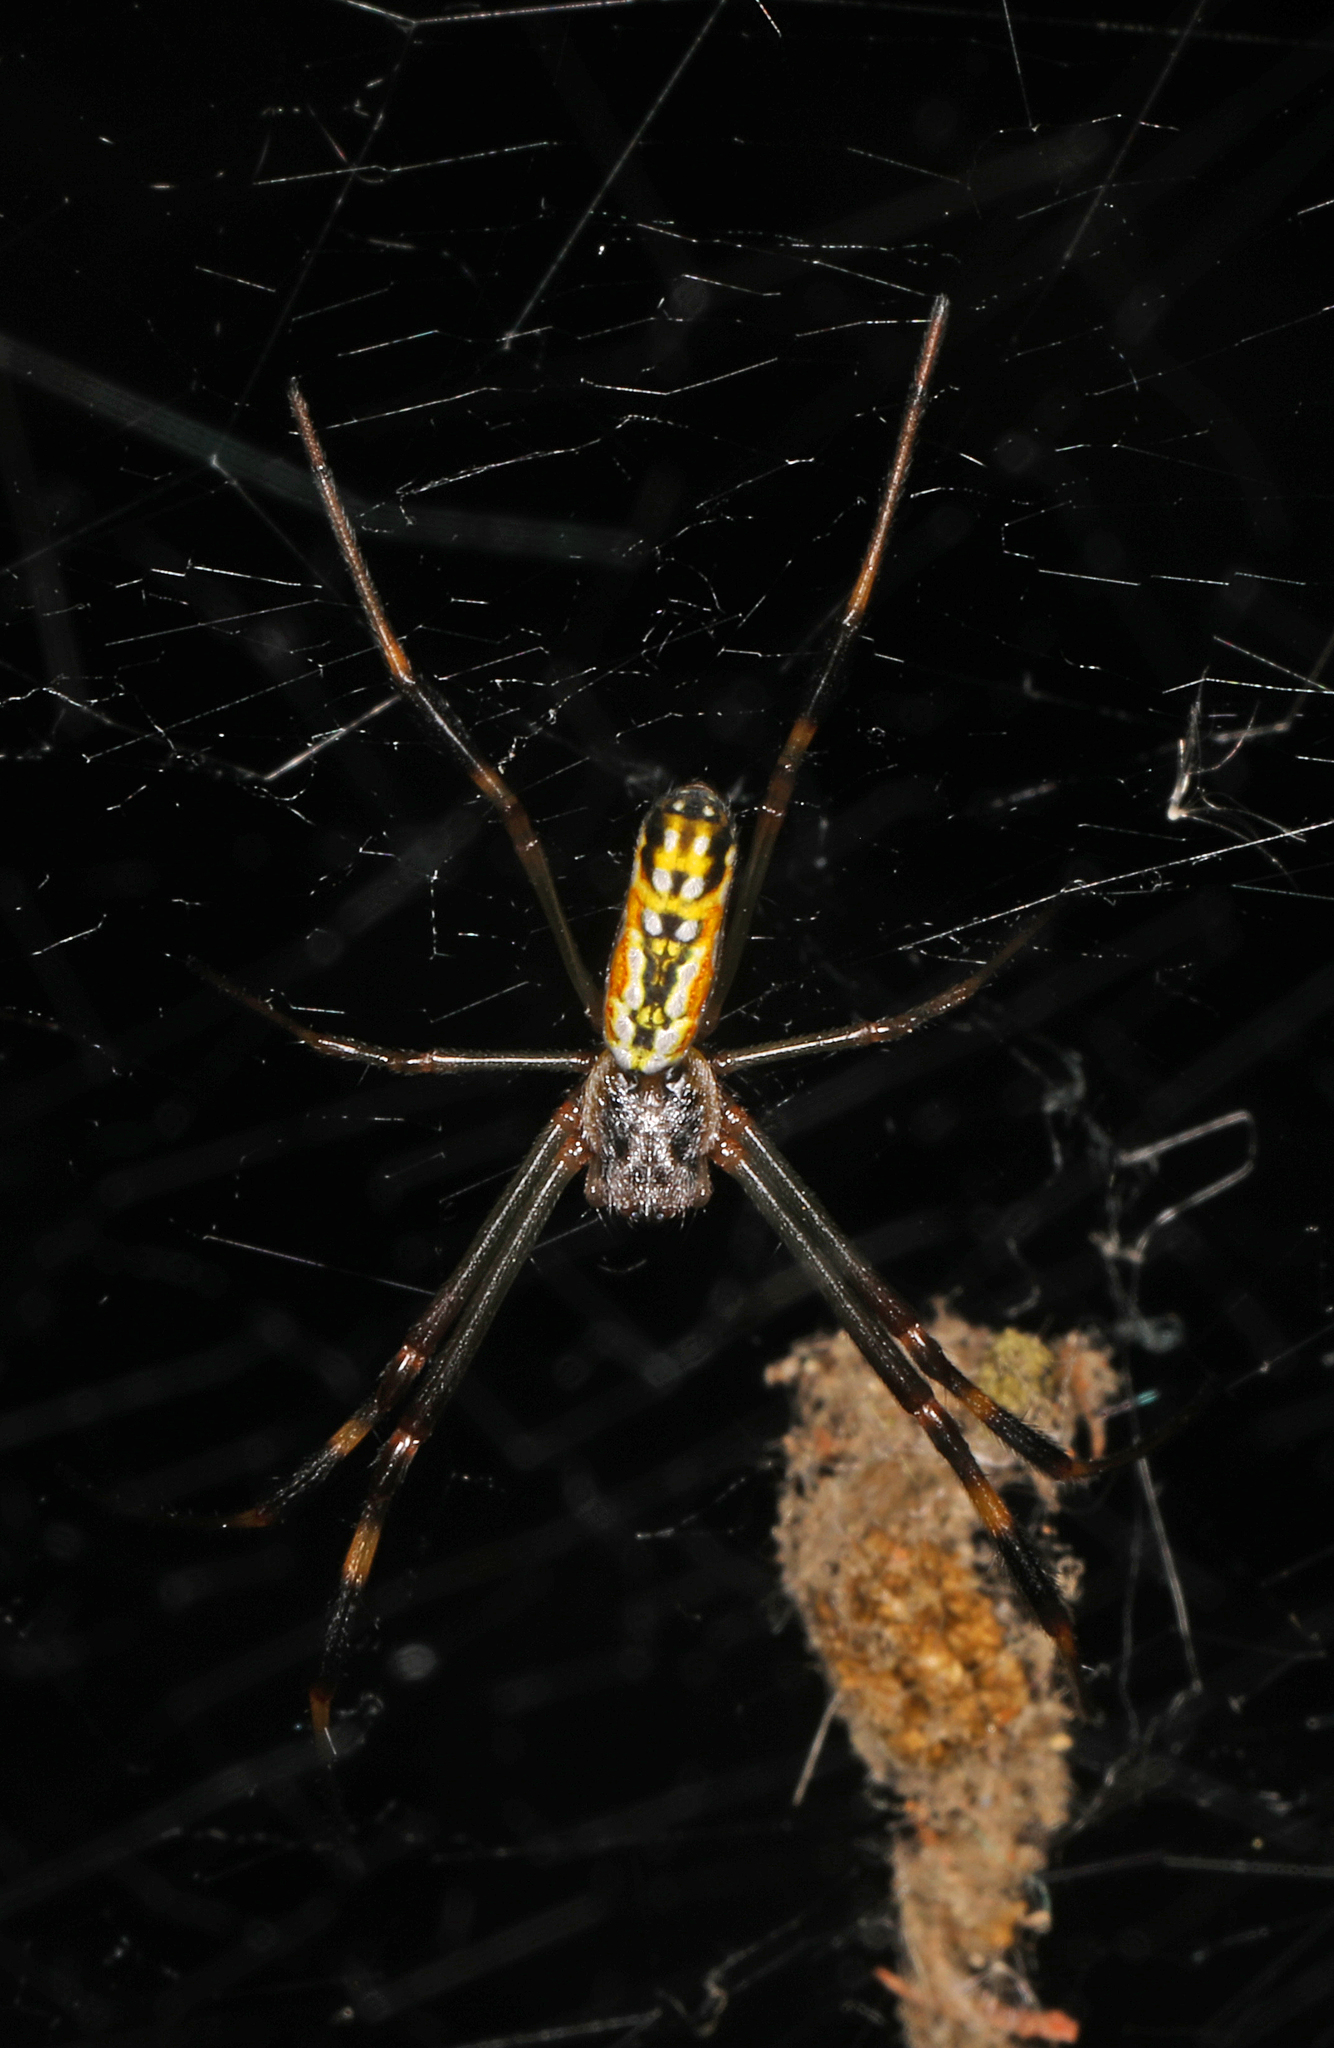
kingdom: Animalia
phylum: Arthropoda
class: Arachnida
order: Araneae
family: Araneidae
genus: Trichonephila
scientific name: Trichonephila clavipes
